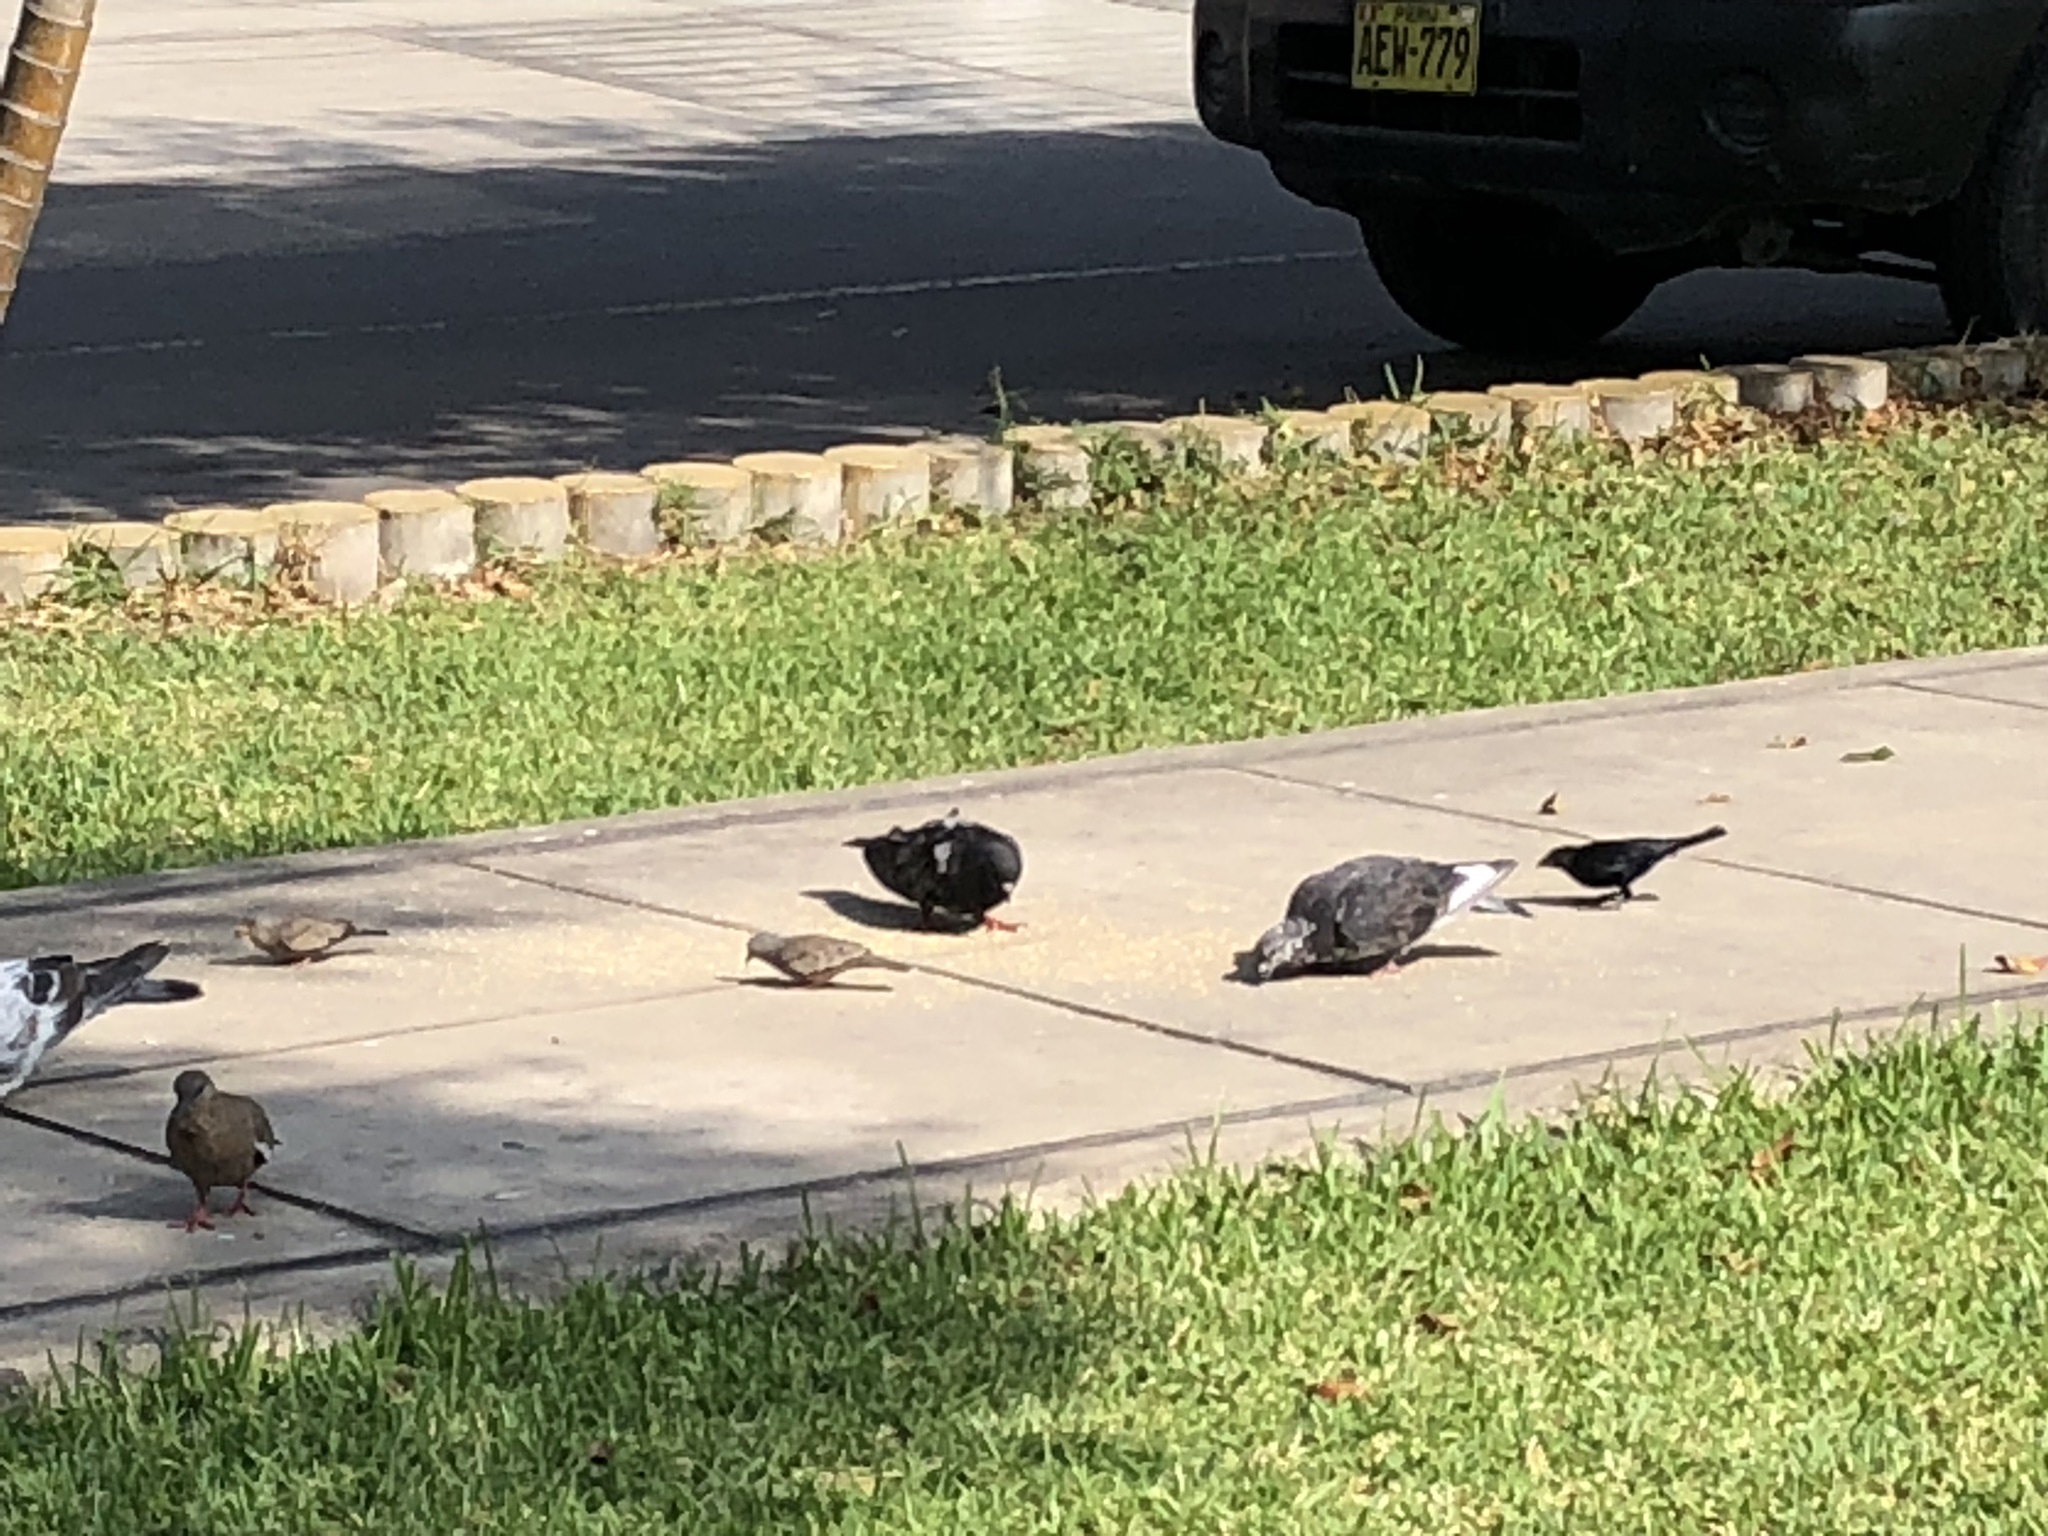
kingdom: Animalia
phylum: Chordata
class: Aves
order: Columbiformes
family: Columbidae
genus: Columbina
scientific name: Columbina cruziana
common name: Croaking ground dove
